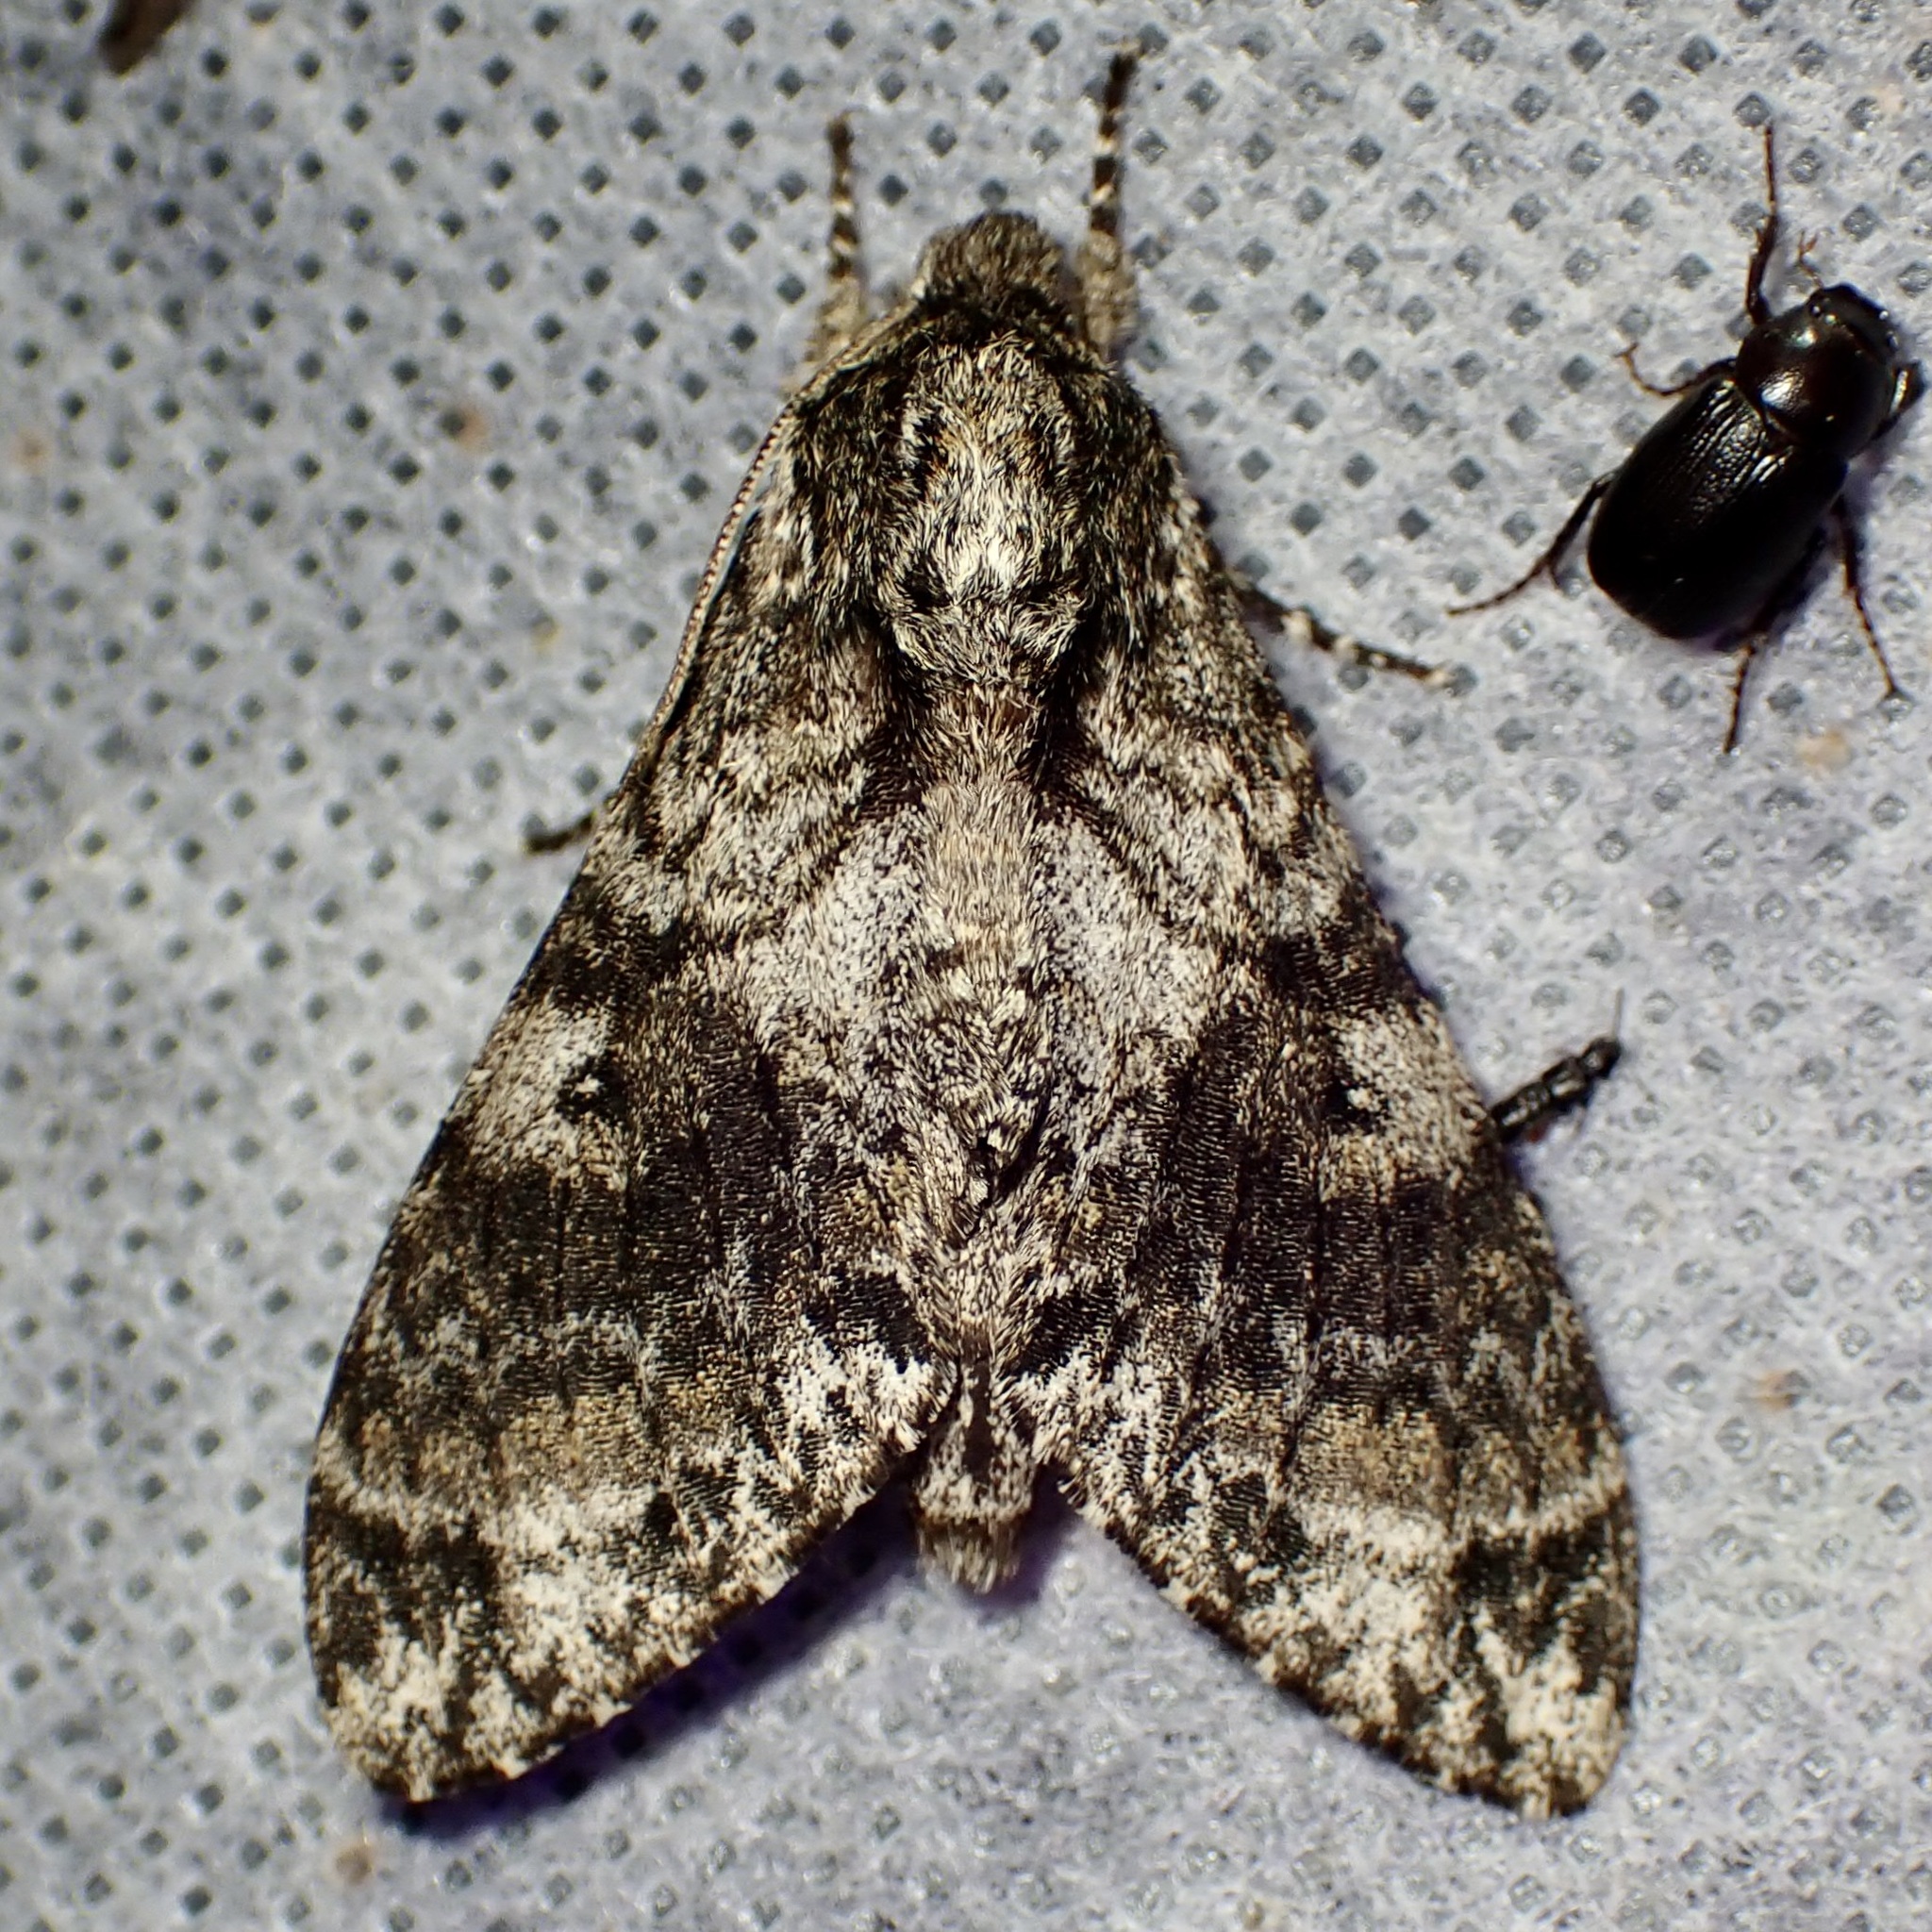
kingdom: Animalia
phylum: Arthropoda
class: Insecta
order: Lepidoptera
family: Sphingidae
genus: Dolbogene
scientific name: Dolbogene hartwegii
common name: Hartweg's sphinx
